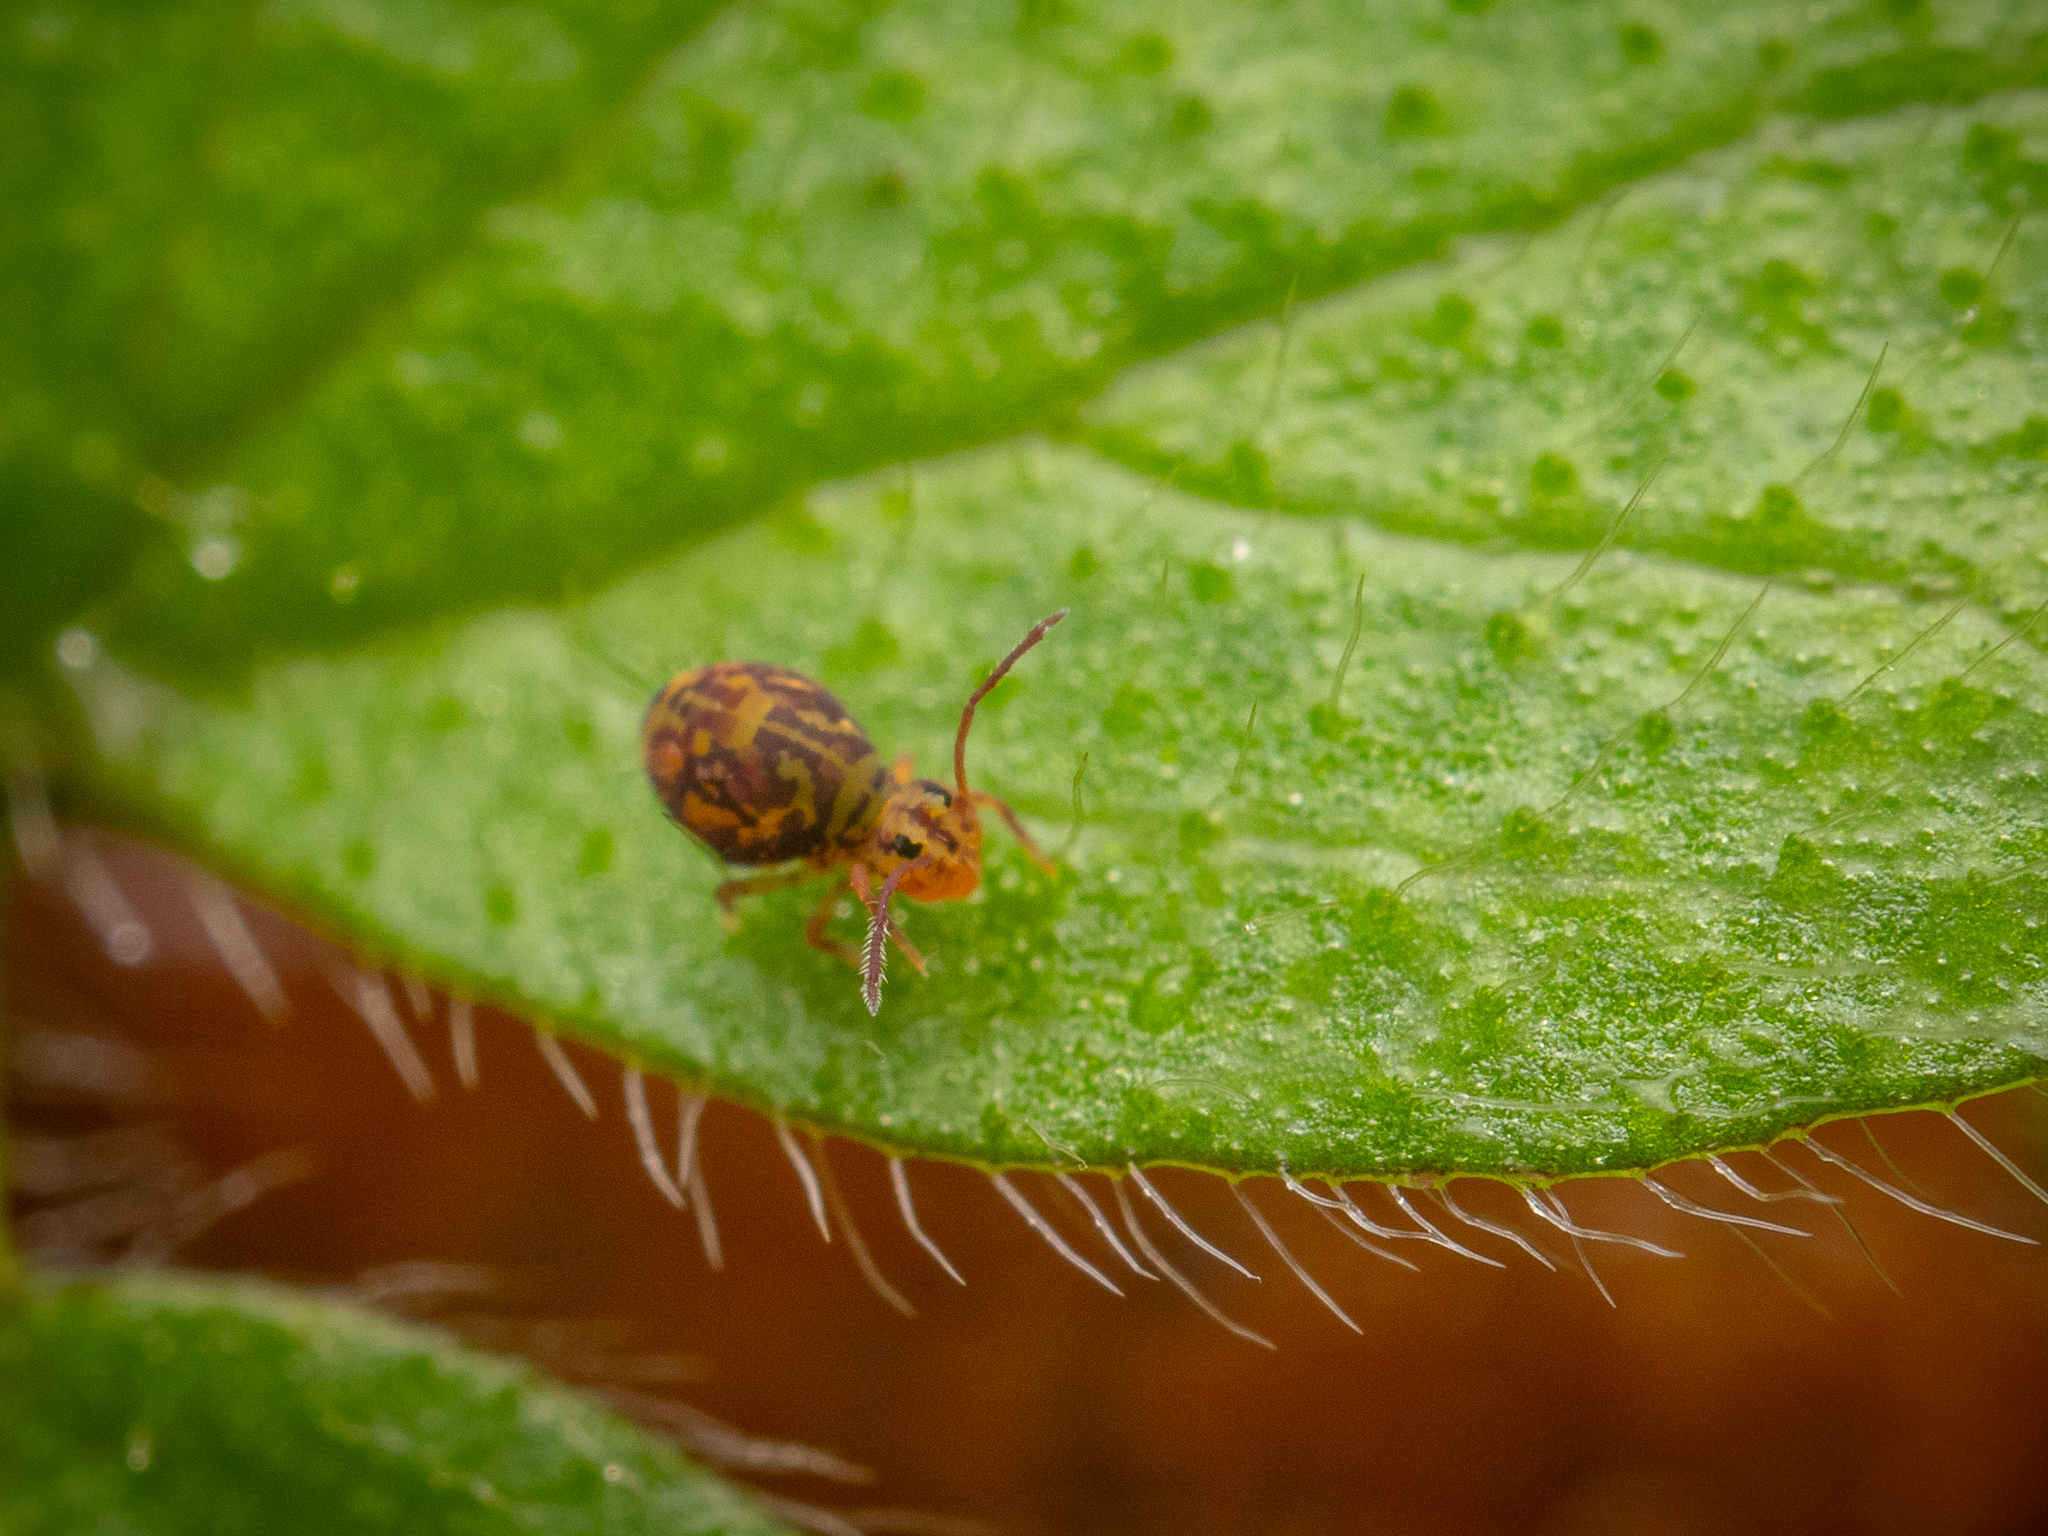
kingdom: Animalia
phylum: Arthropoda
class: Collembola
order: Symphypleona
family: Dicyrtomidae
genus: Dicyrtomina
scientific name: Dicyrtomina ornata
